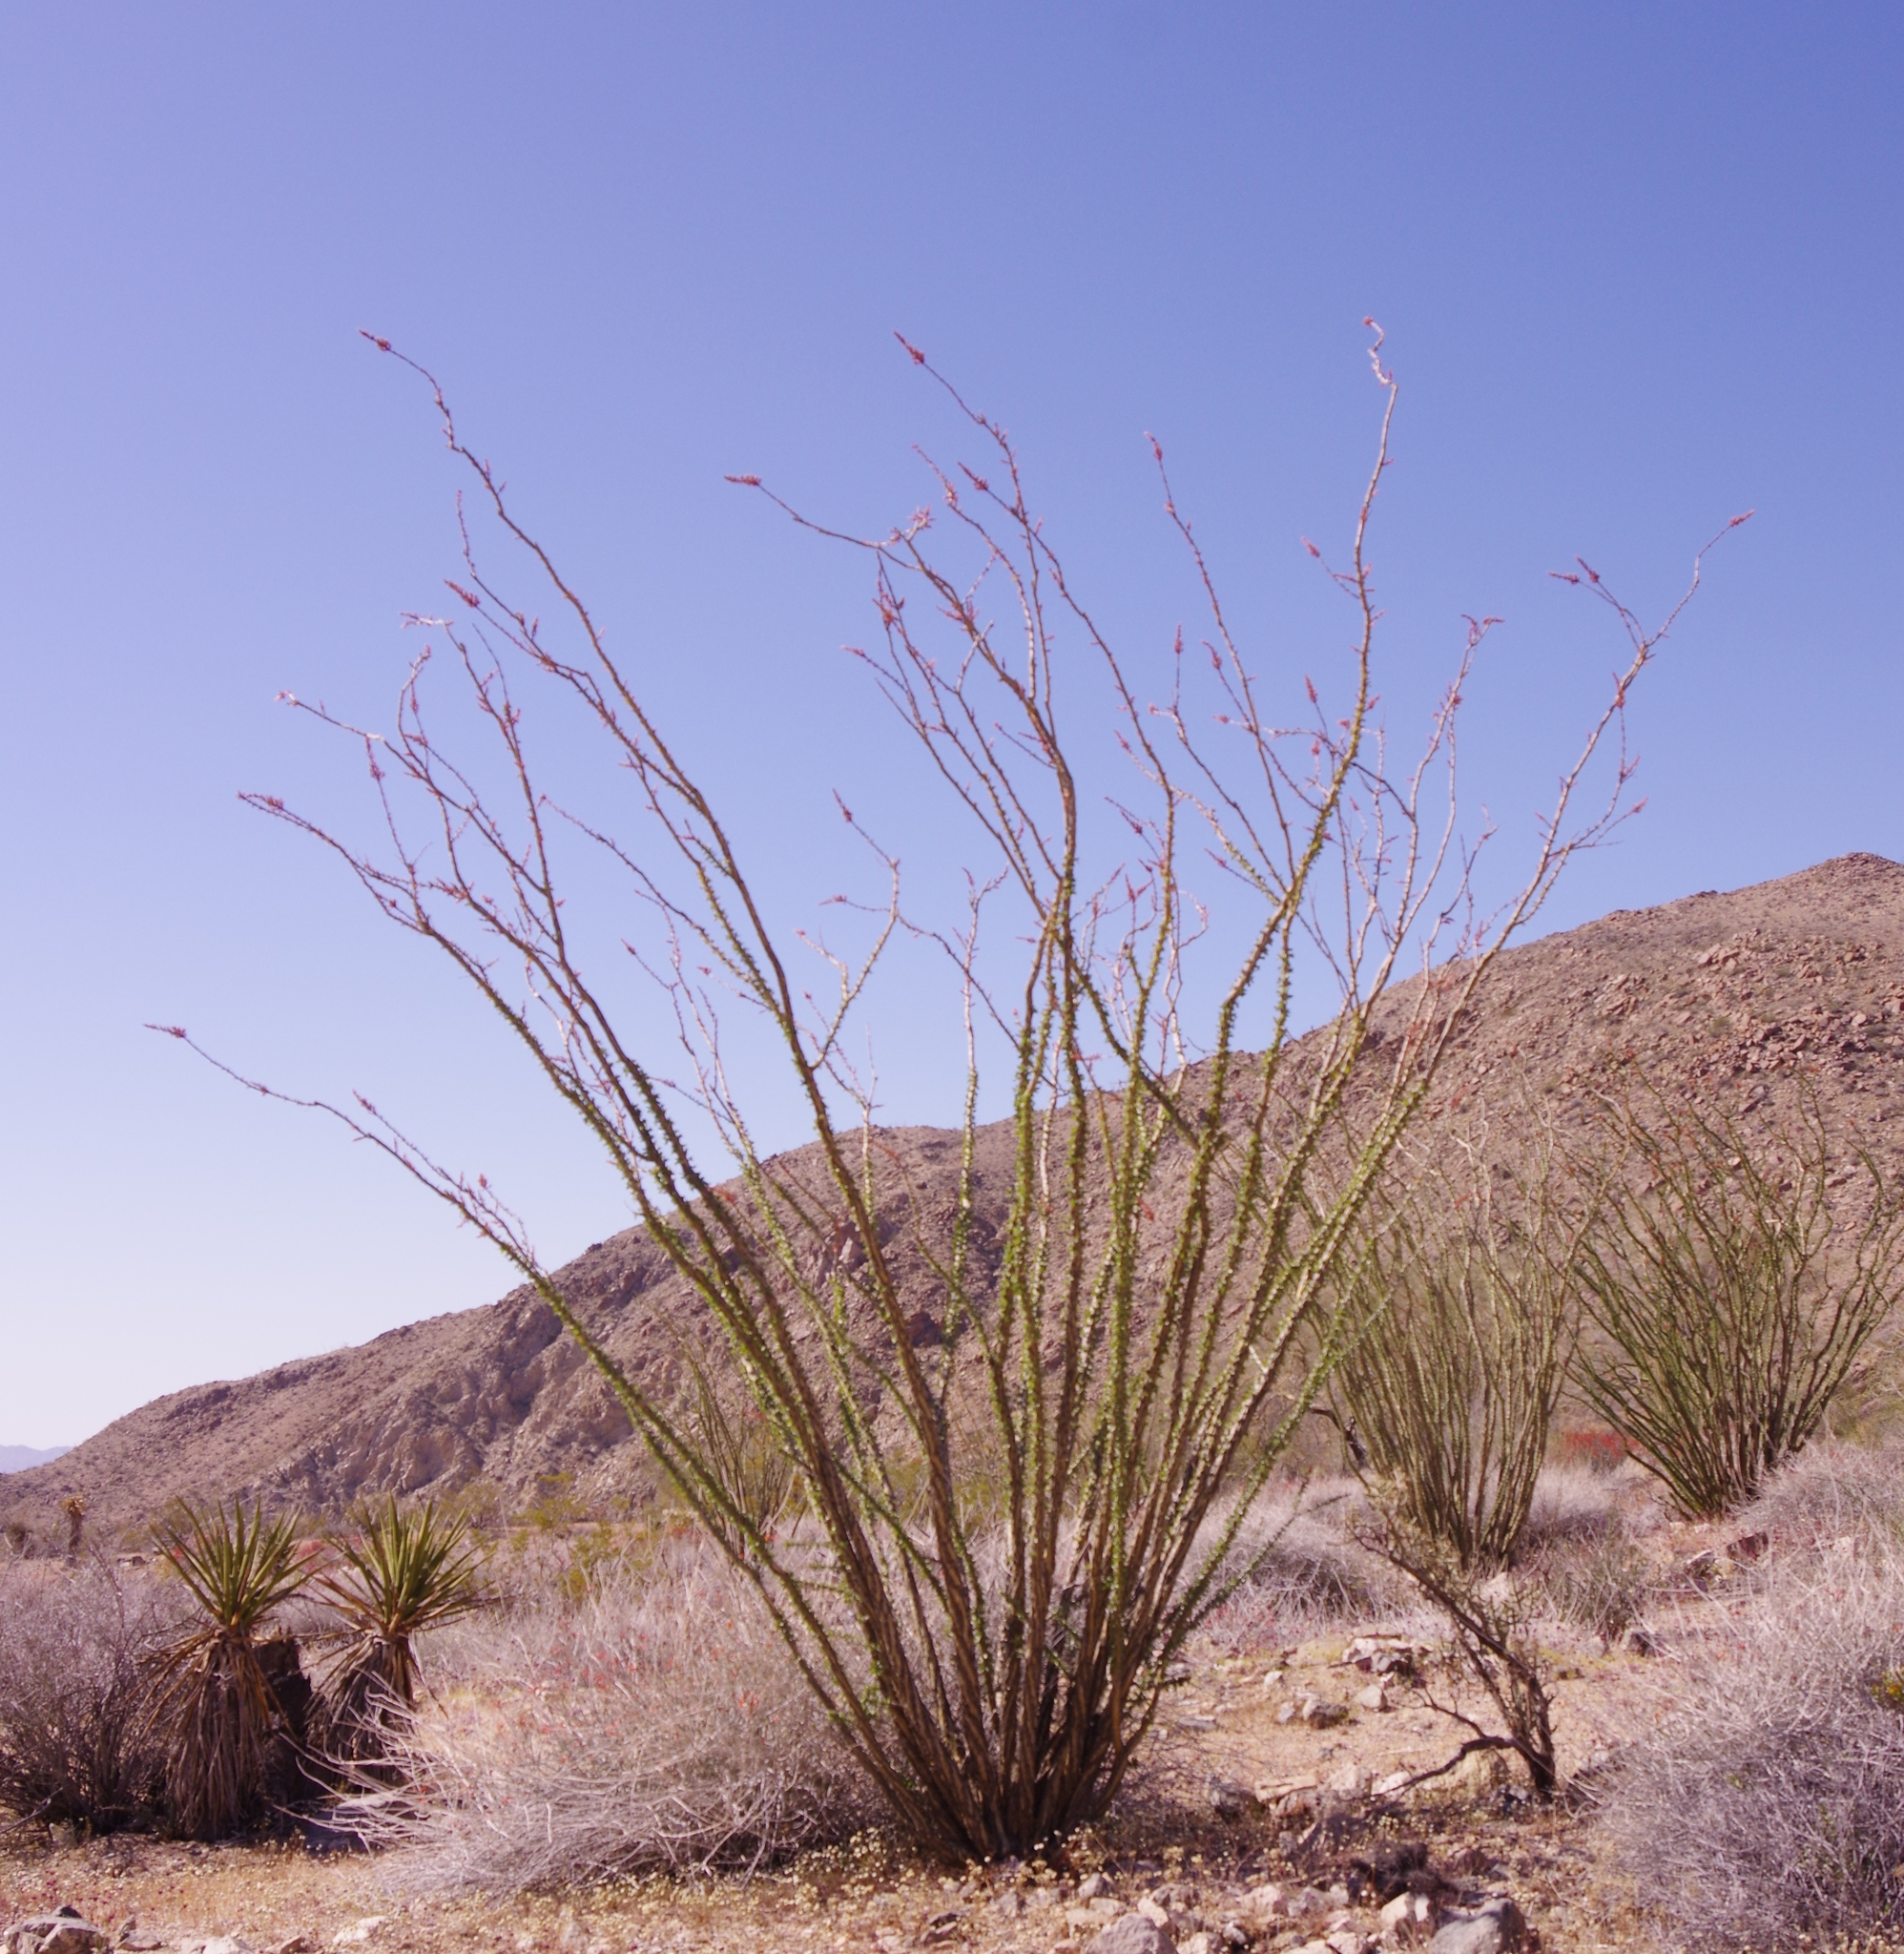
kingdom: Plantae
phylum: Tracheophyta
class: Magnoliopsida
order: Ericales
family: Fouquieriaceae
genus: Fouquieria
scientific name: Fouquieria splendens
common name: Vine-cactus
